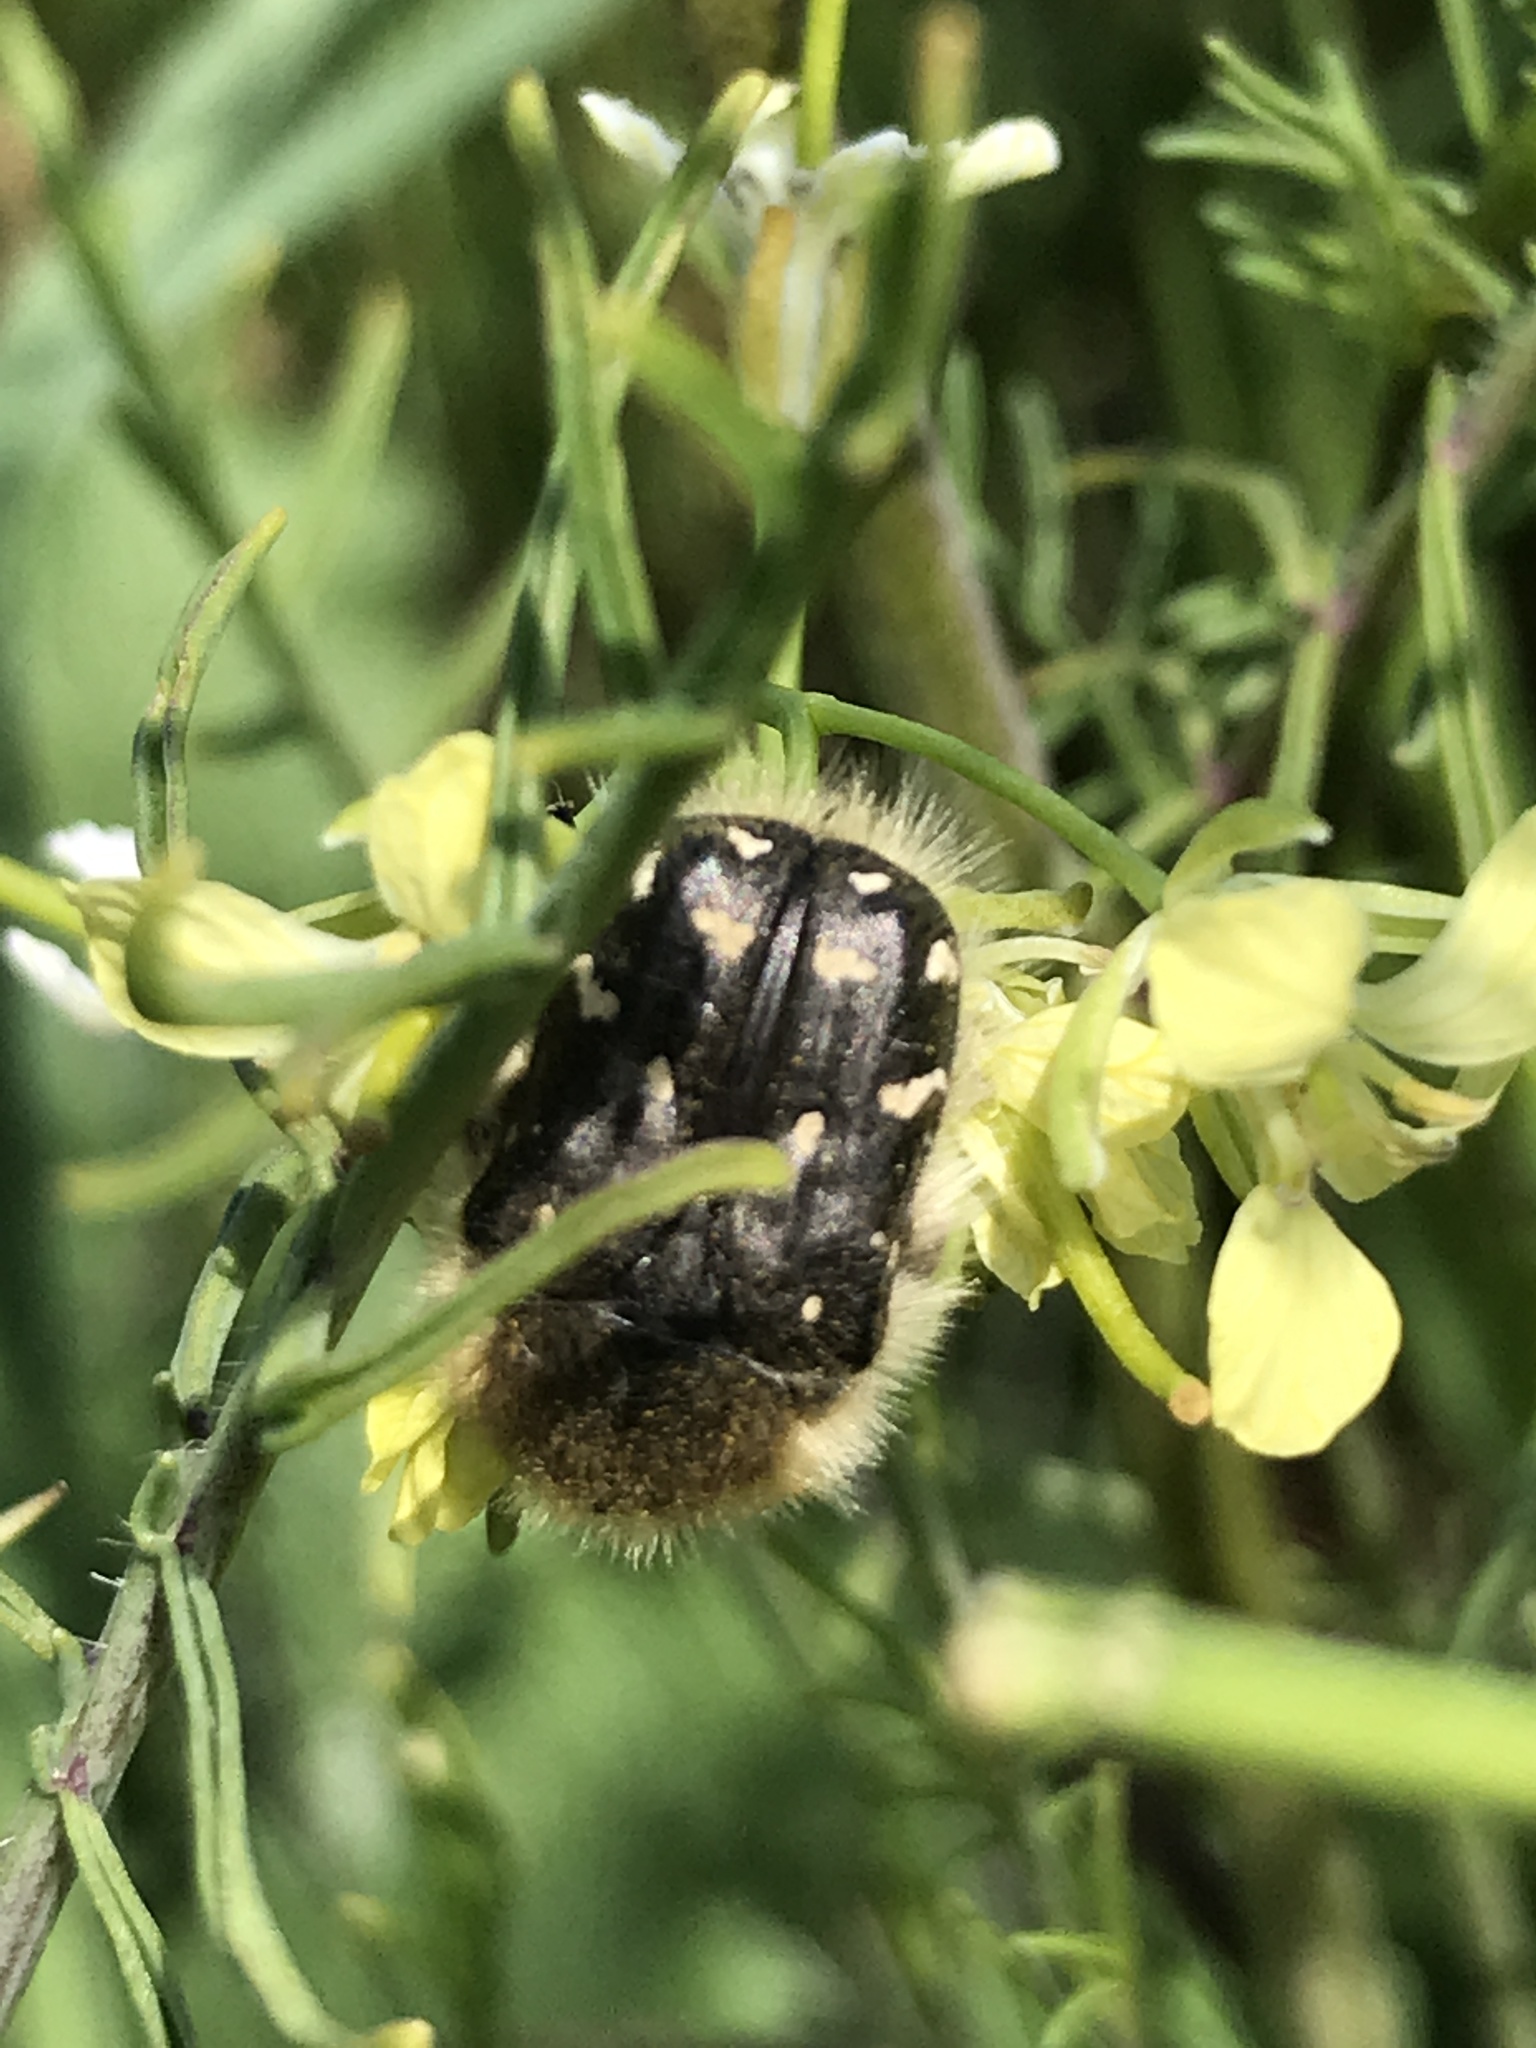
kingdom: Animalia
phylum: Arthropoda
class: Insecta
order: Coleoptera
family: Scarabaeidae
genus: Tropinota
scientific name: Tropinota hirta
